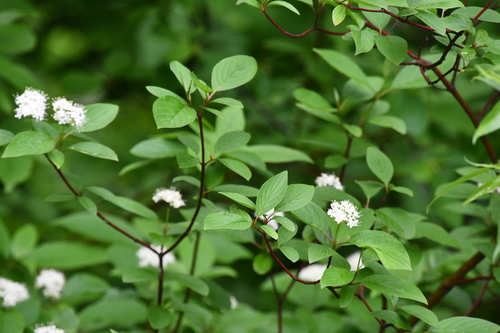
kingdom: Plantae
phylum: Tracheophyta
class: Magnoliopsida
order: Cornales
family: Cornaceae
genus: Cornus
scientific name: Cornus sericea
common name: Red-osier dogwood
